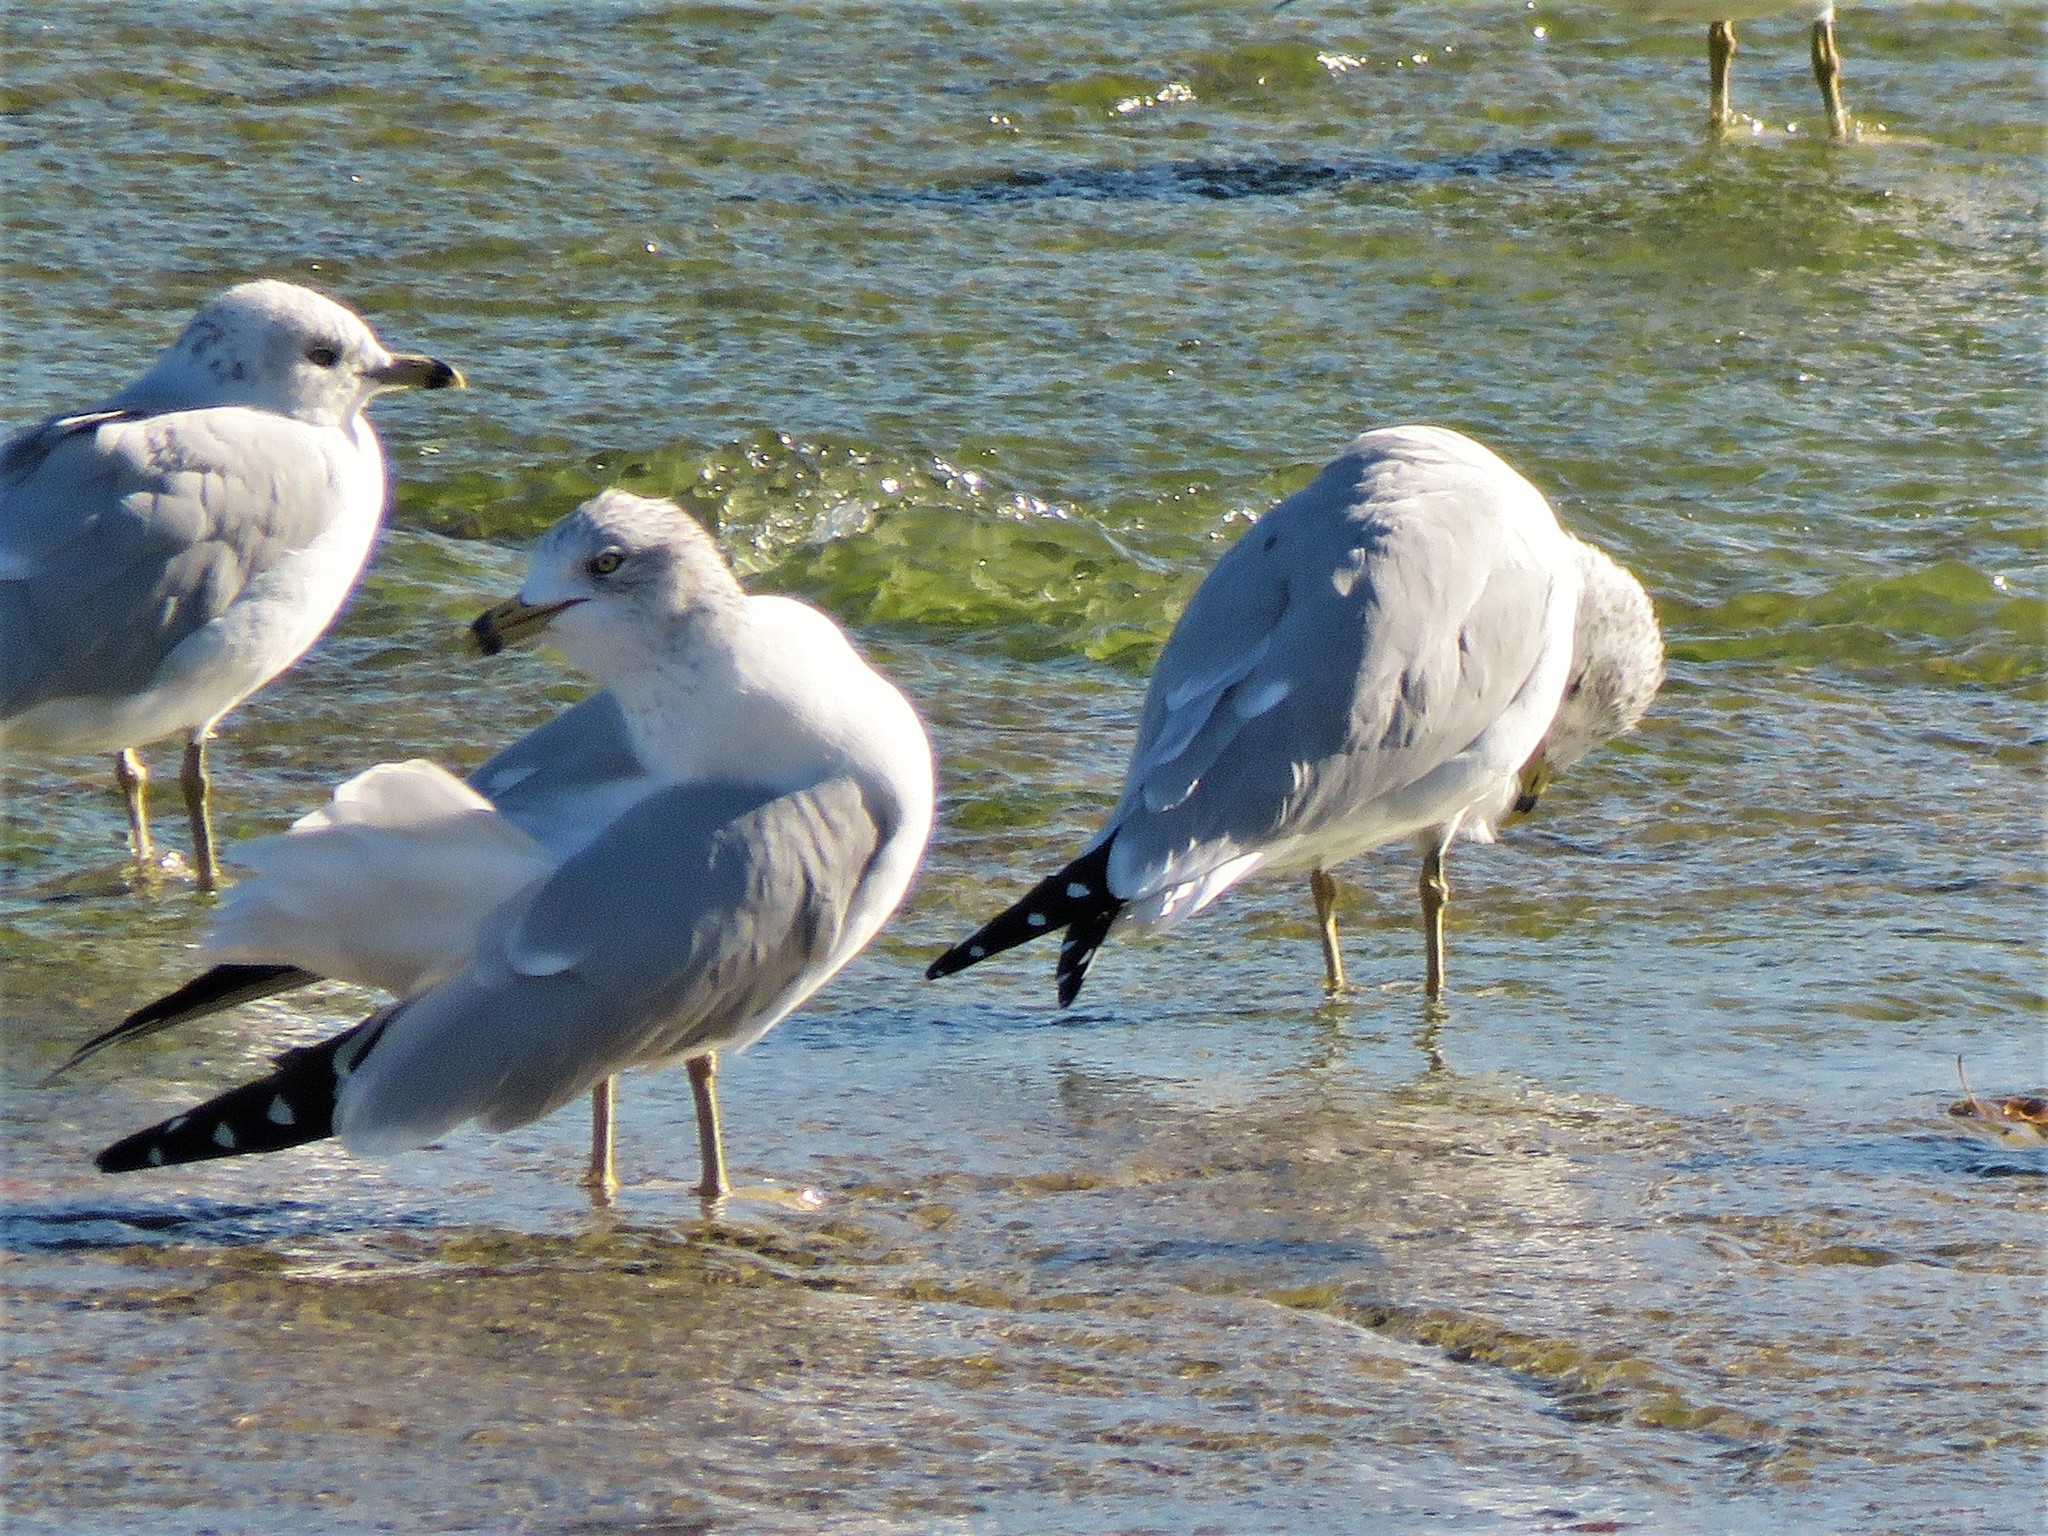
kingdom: Animalia
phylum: Chordata
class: Aves
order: Charadriiformes
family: Laridae
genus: Larus
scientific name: Larus delawarensis
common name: Ring-billed gull
